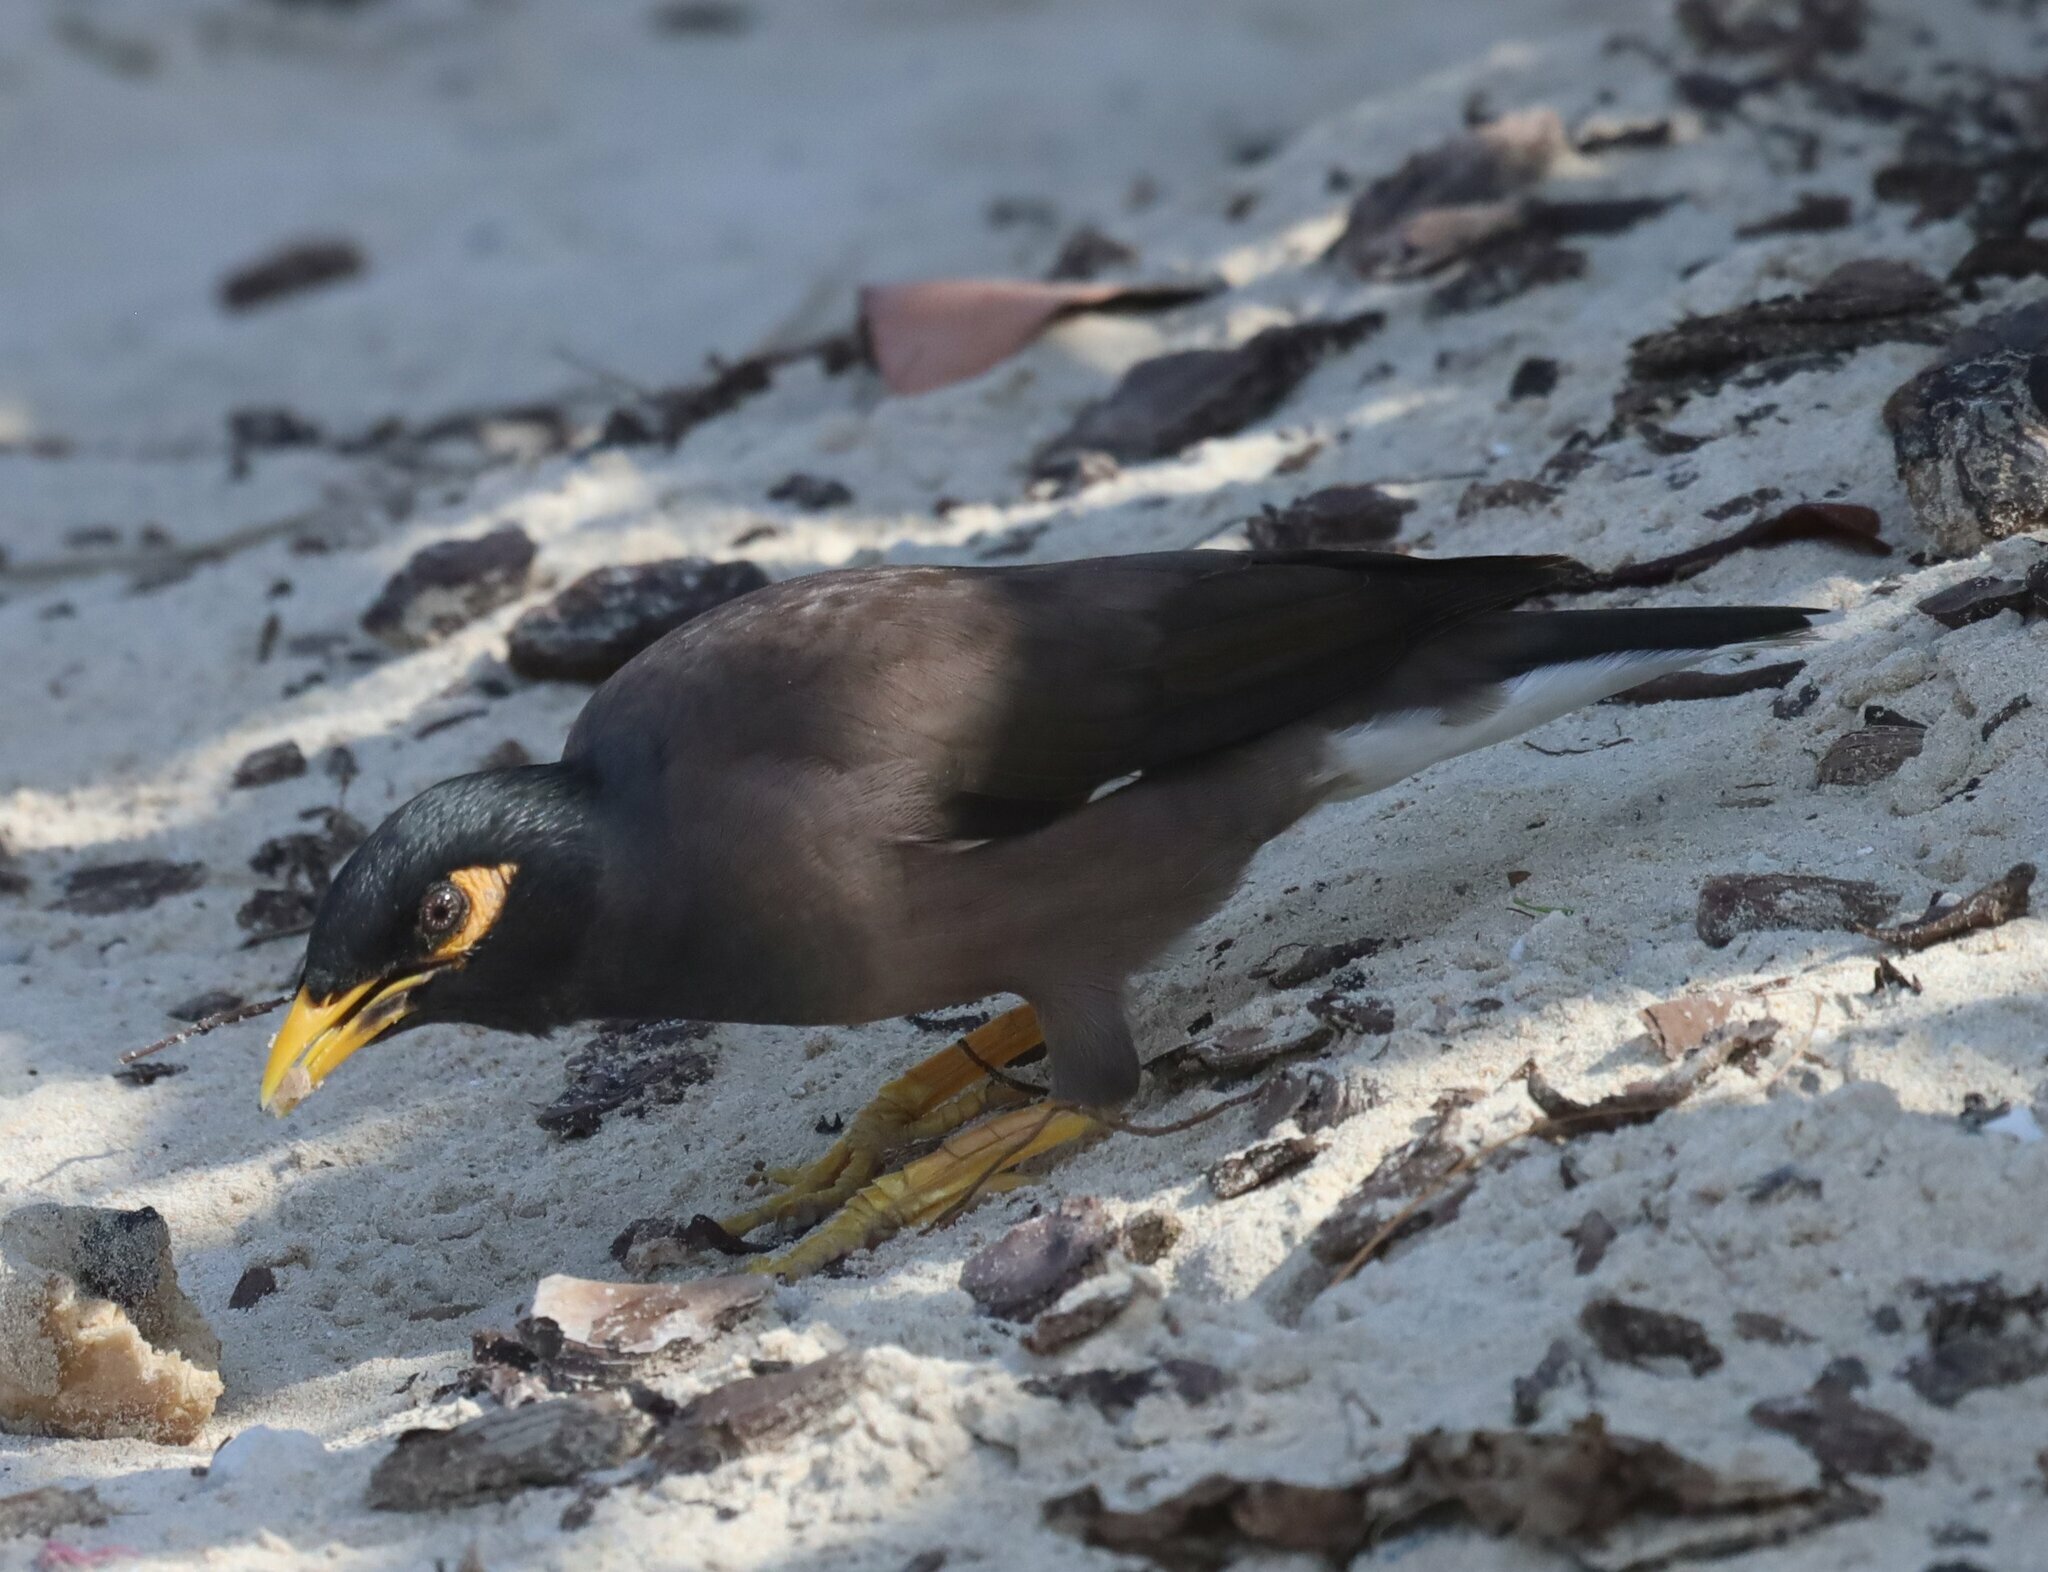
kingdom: Animalia
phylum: Chordata
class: Aves
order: Passeriformes
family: Sturnidae
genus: Acridotheres
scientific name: Acridotheres tristis
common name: Common myna
